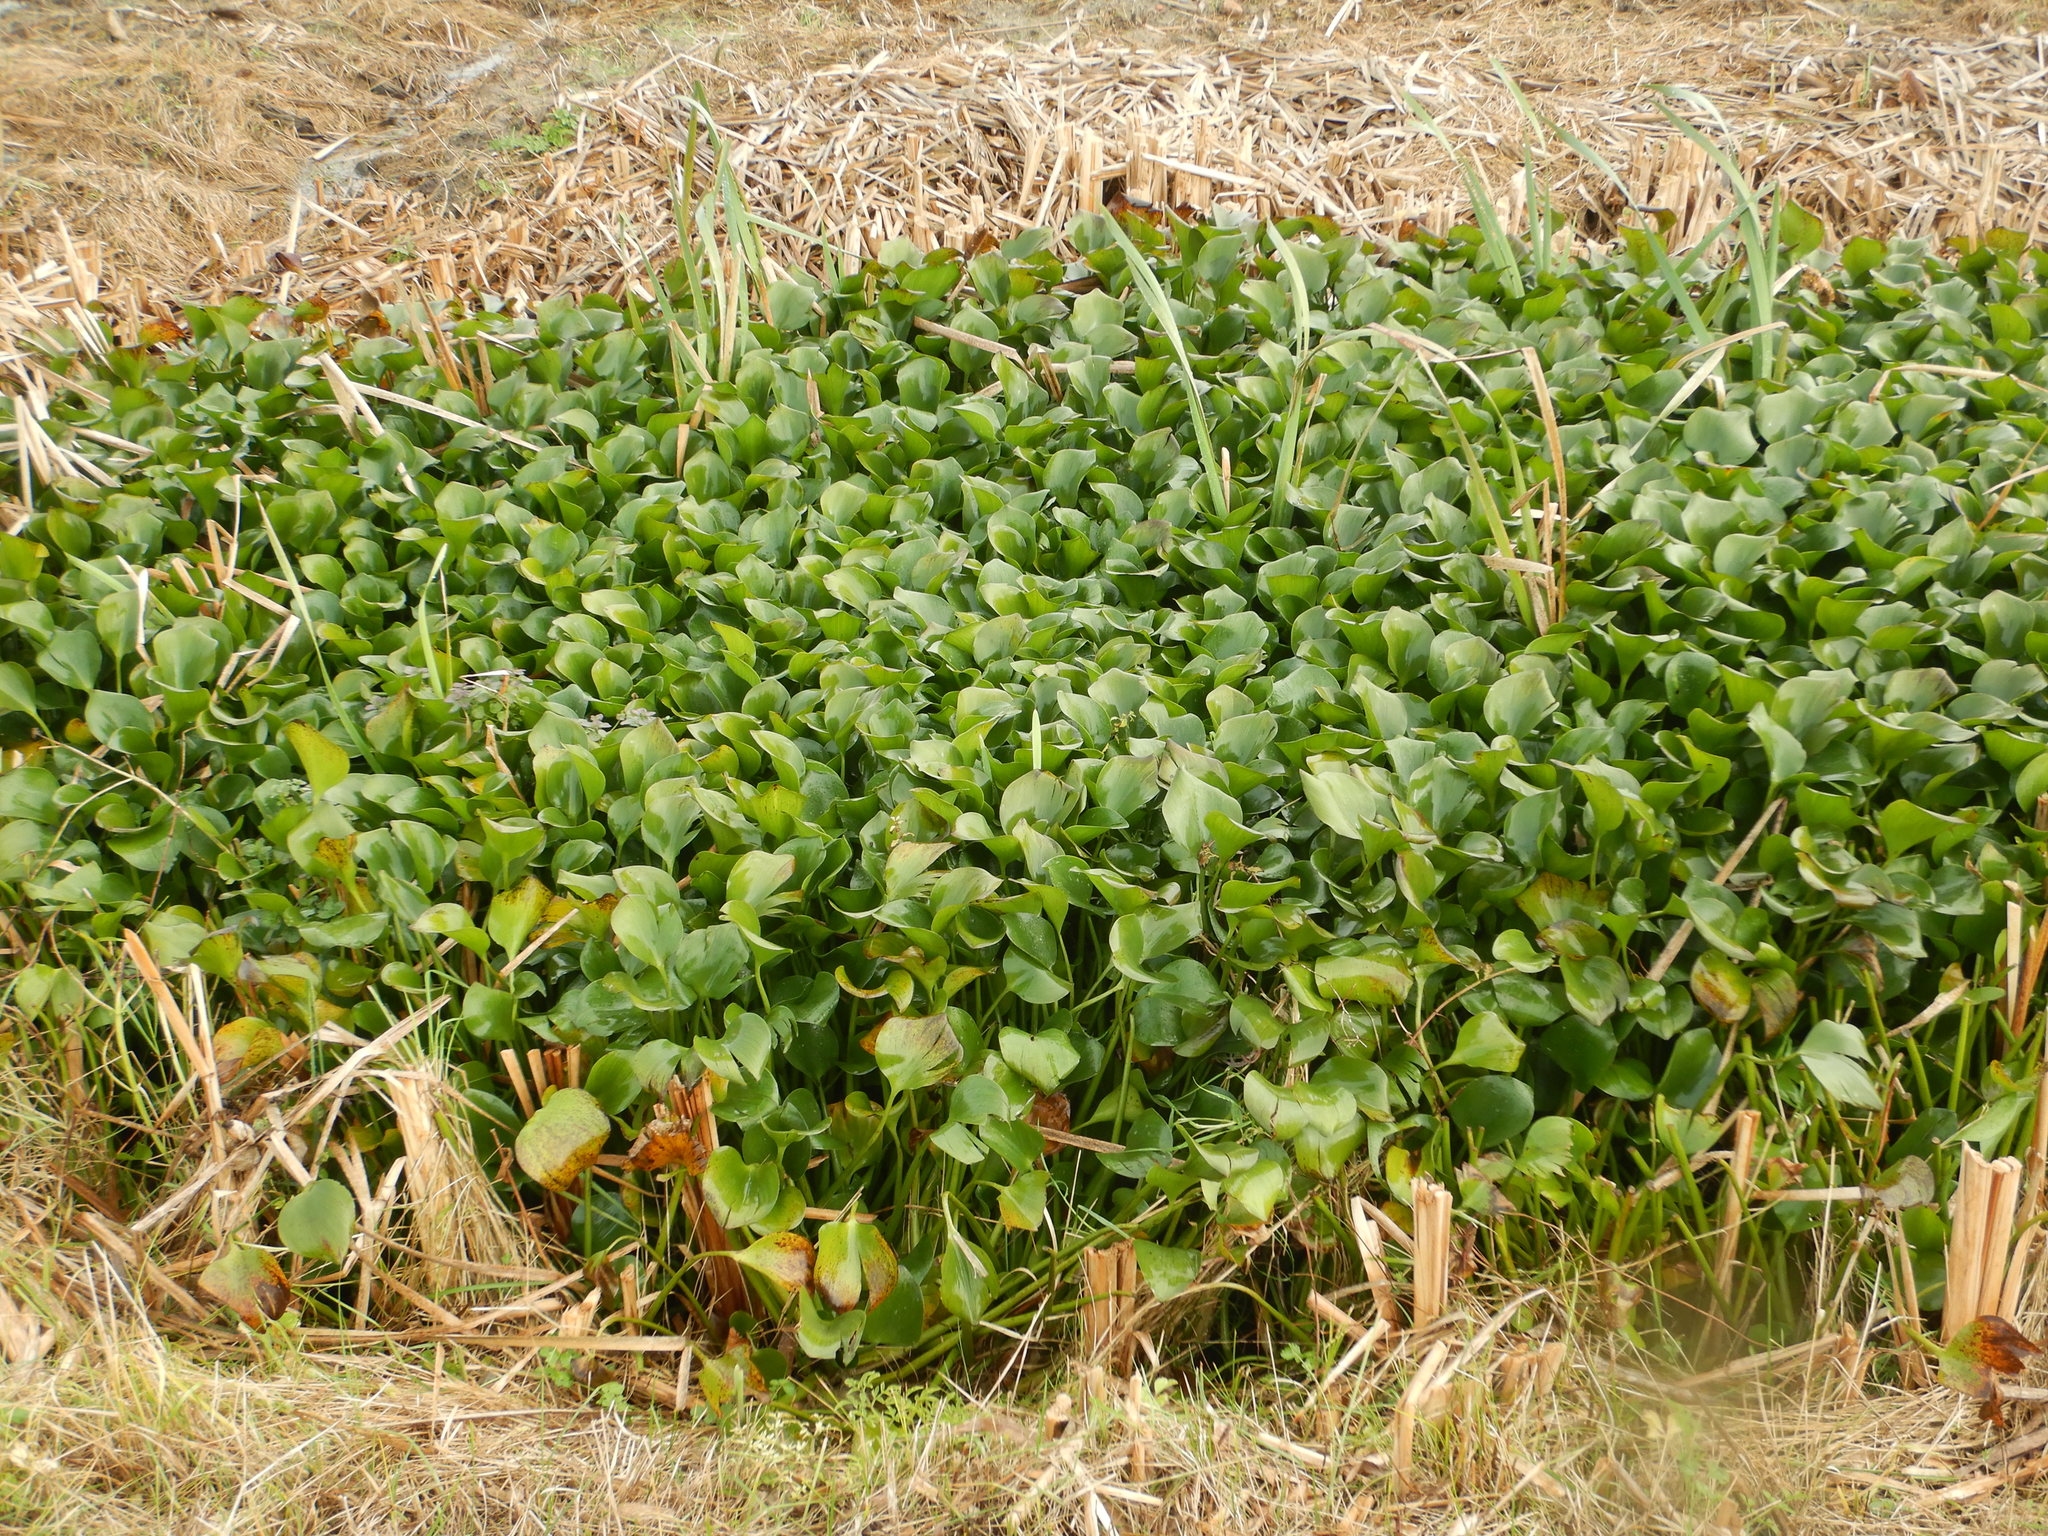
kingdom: Plantae
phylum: Tracheophyta
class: Liliopsida
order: Commelinales
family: Pontederiaceae
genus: Pontederia
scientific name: Pontederia crassipes
